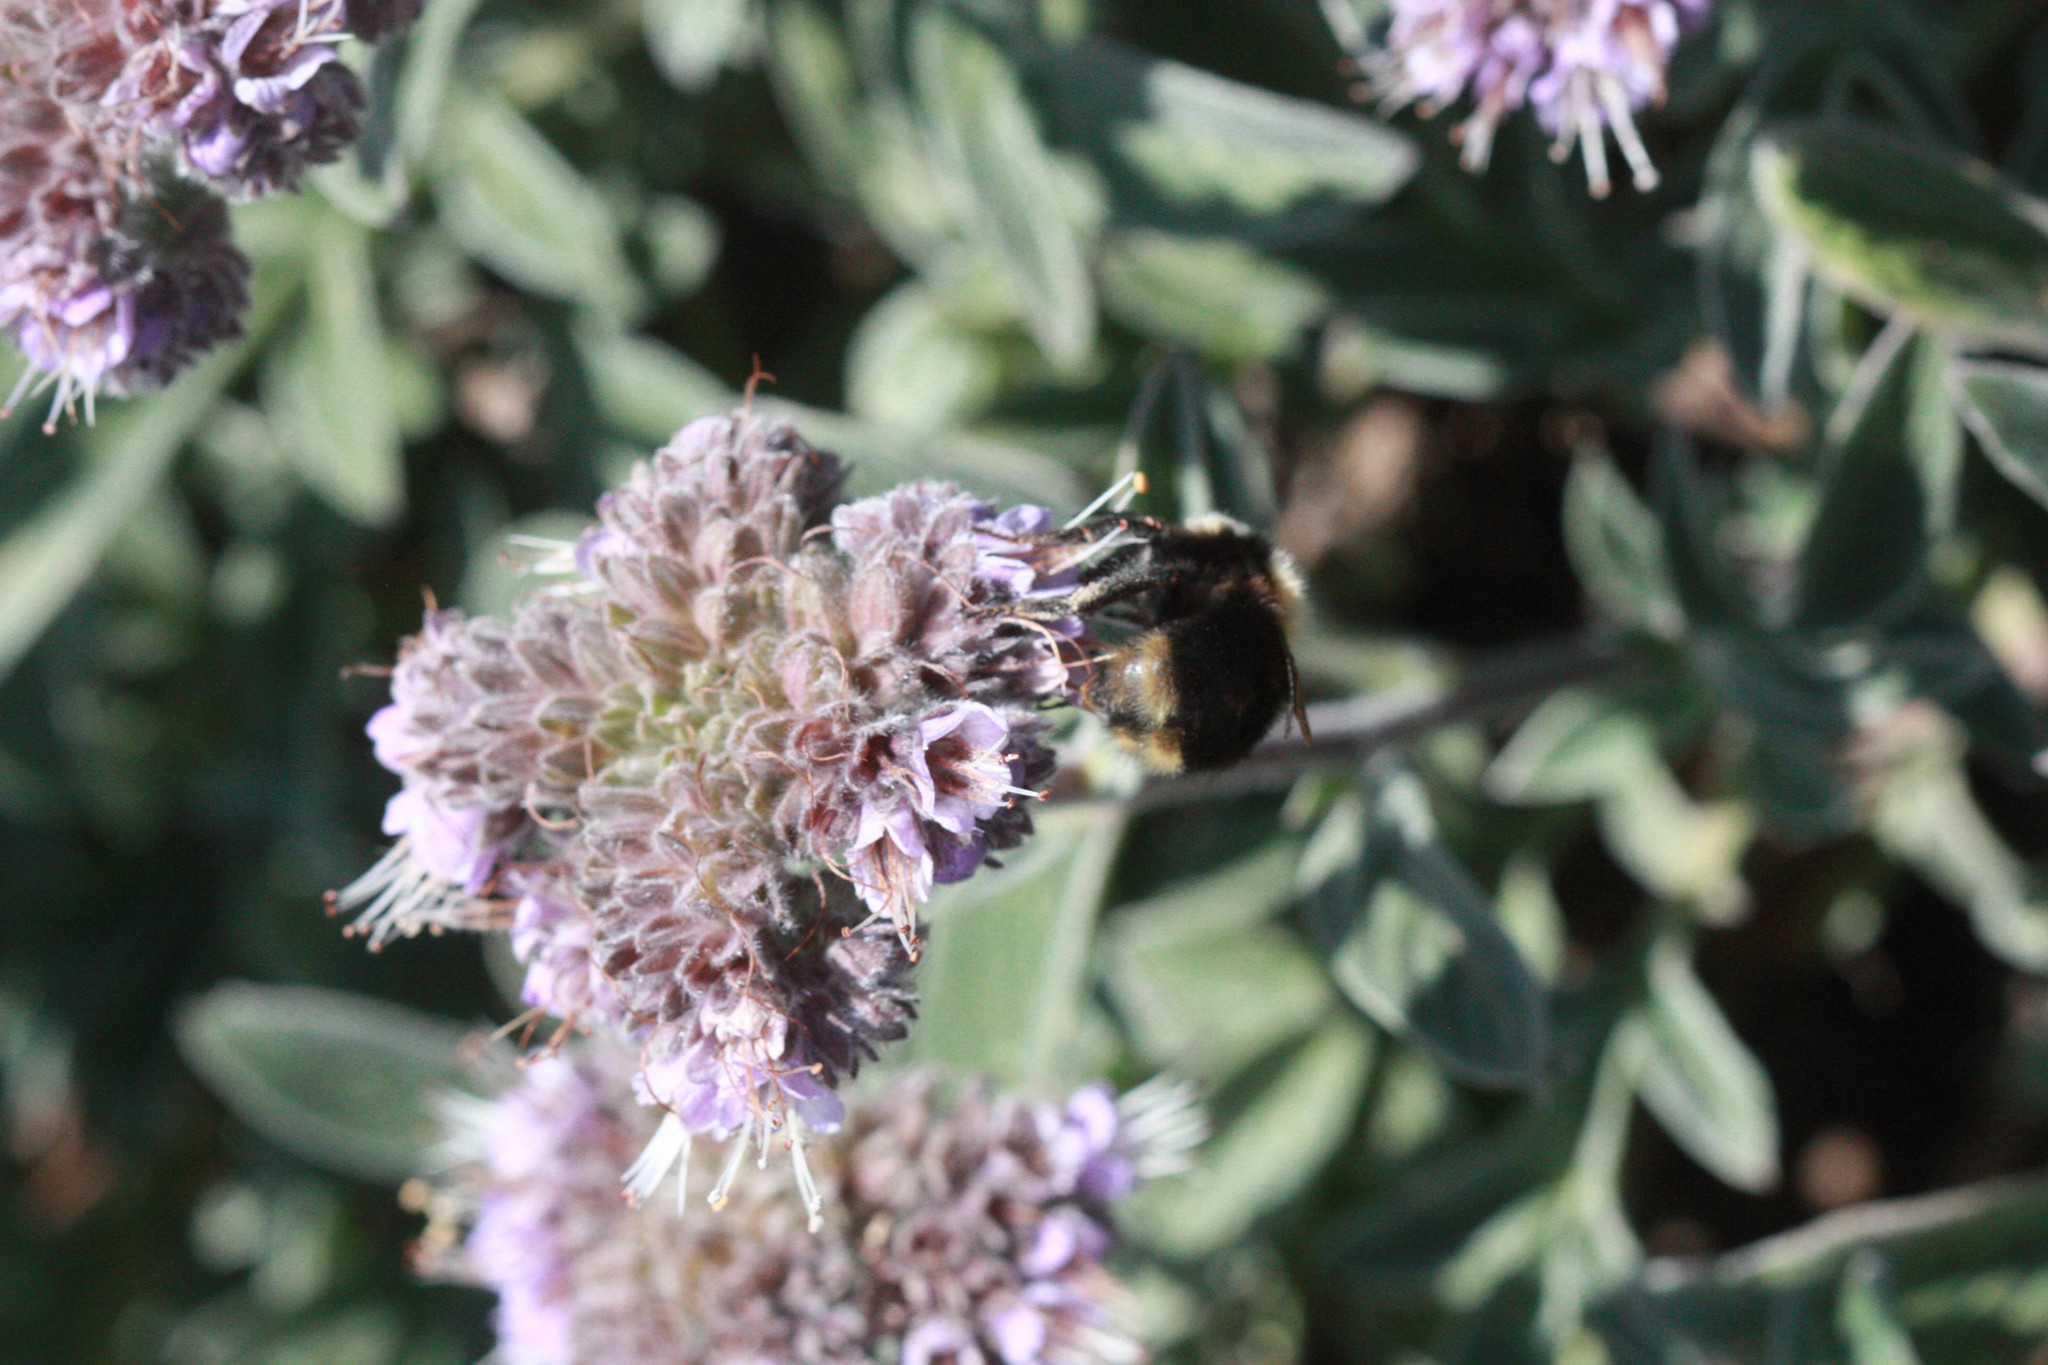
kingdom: Plantae
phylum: Tracheophyta
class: Magnoliopsida
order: Boraginales
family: Hydrophyllaceae
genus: Phacelia
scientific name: Phacelia californica
